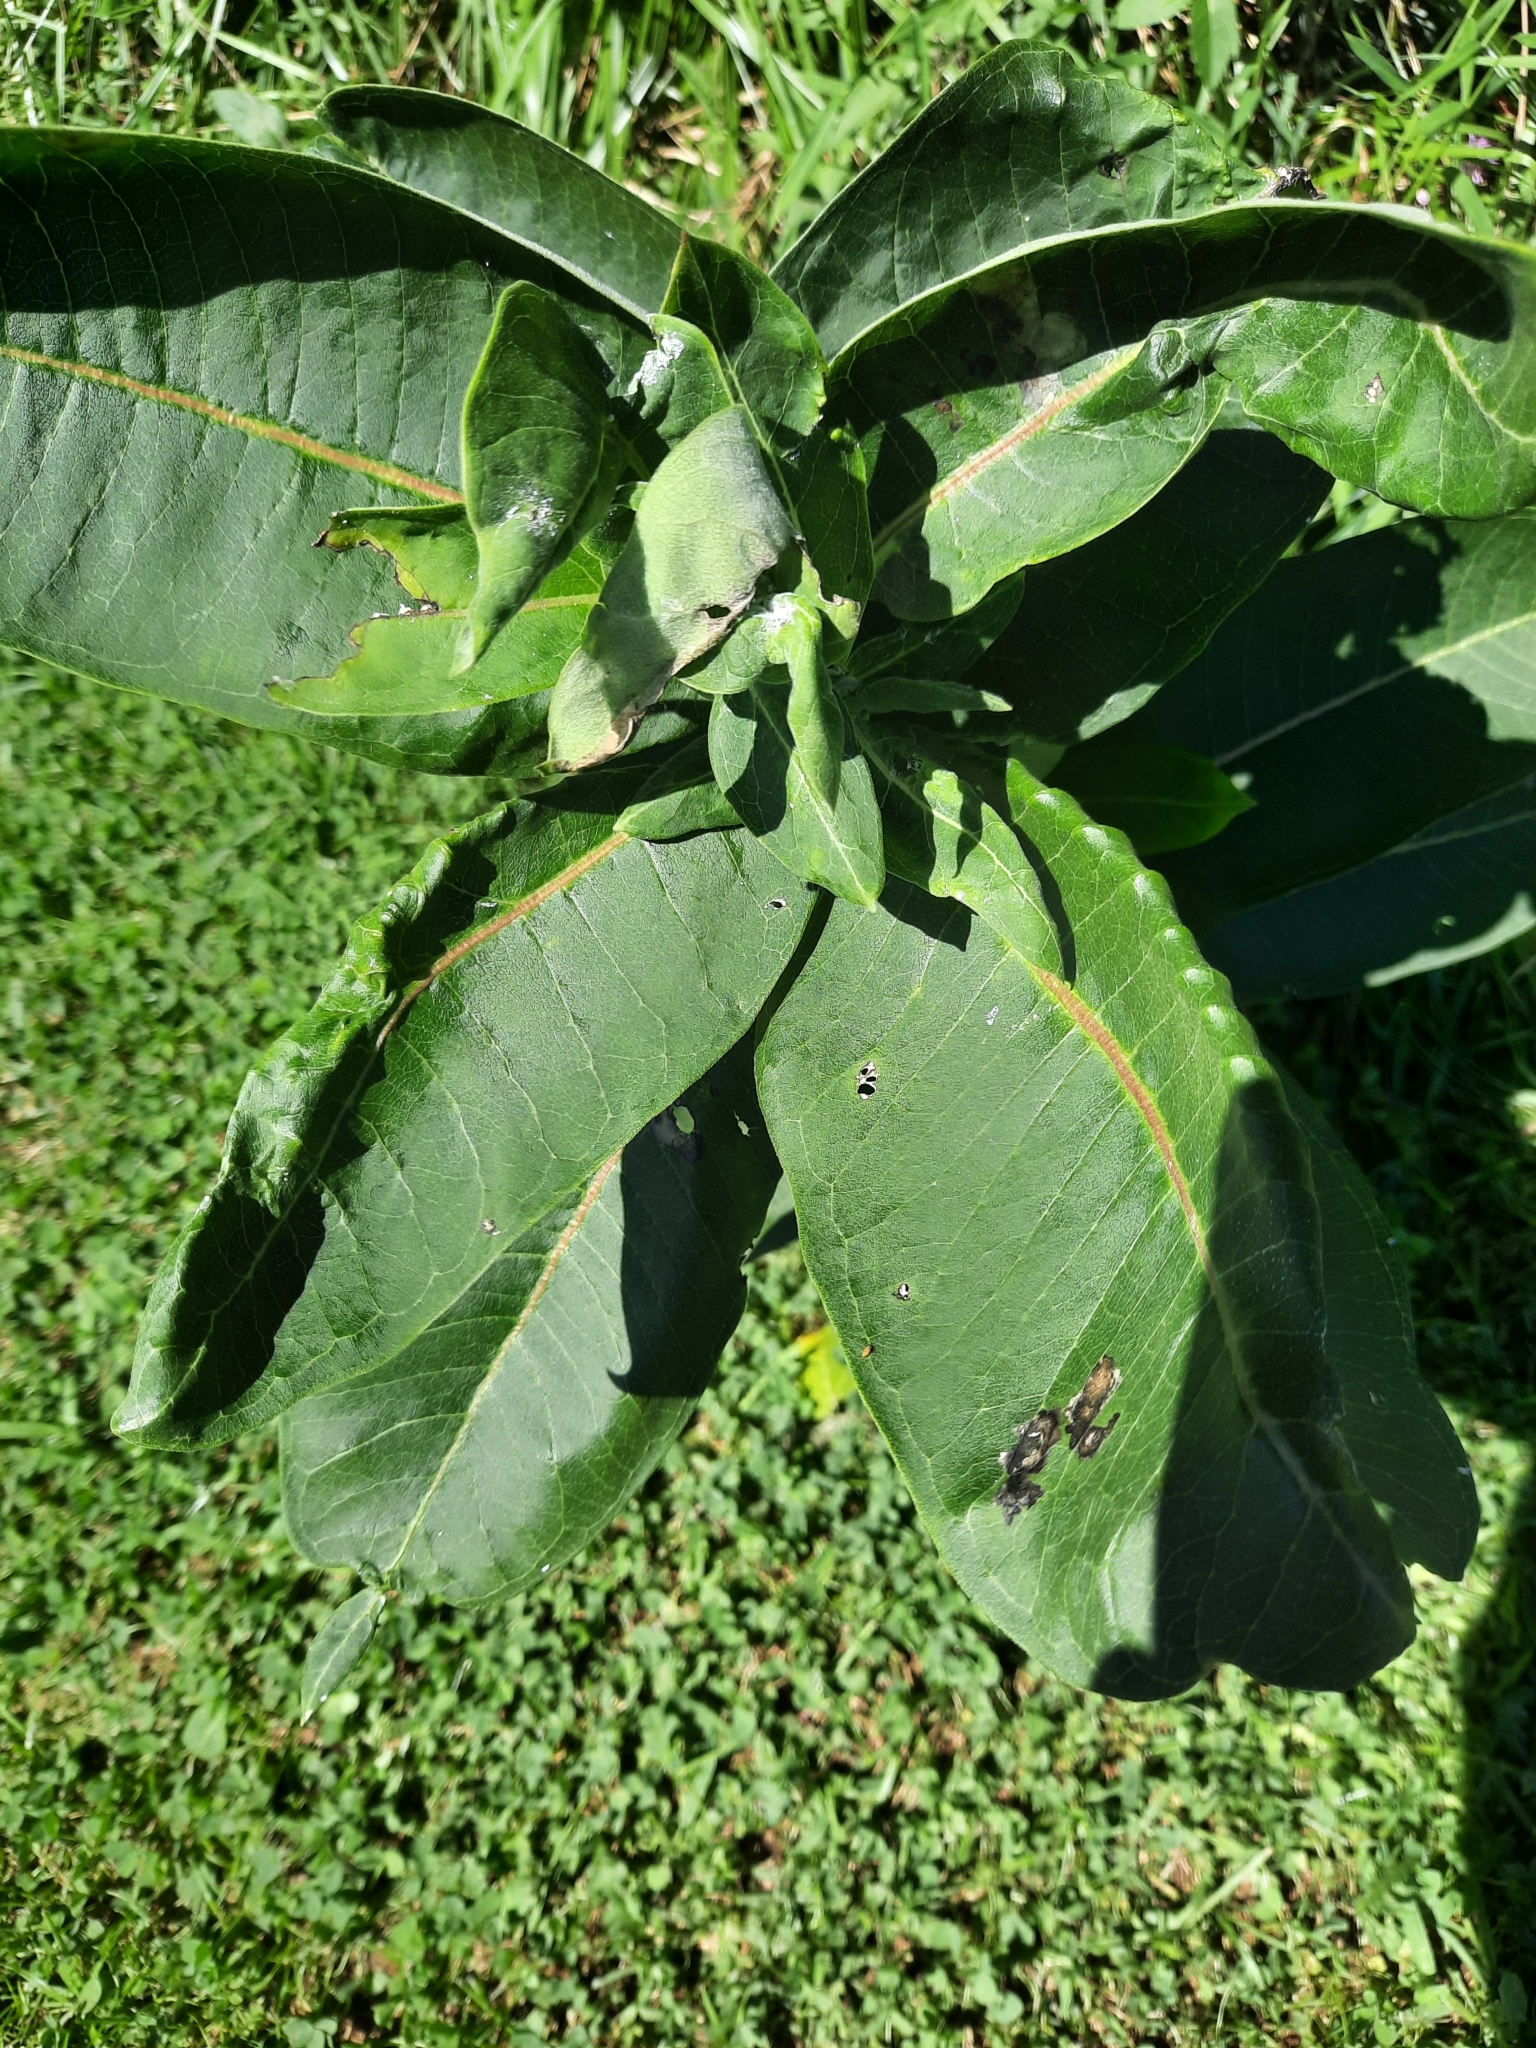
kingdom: Plantae
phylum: Tracheophyta
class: Magnoliopsida
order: Gentianales
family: Apocynaceae
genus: Asclepias
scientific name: Asclepias syriaca
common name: Common milkweed
